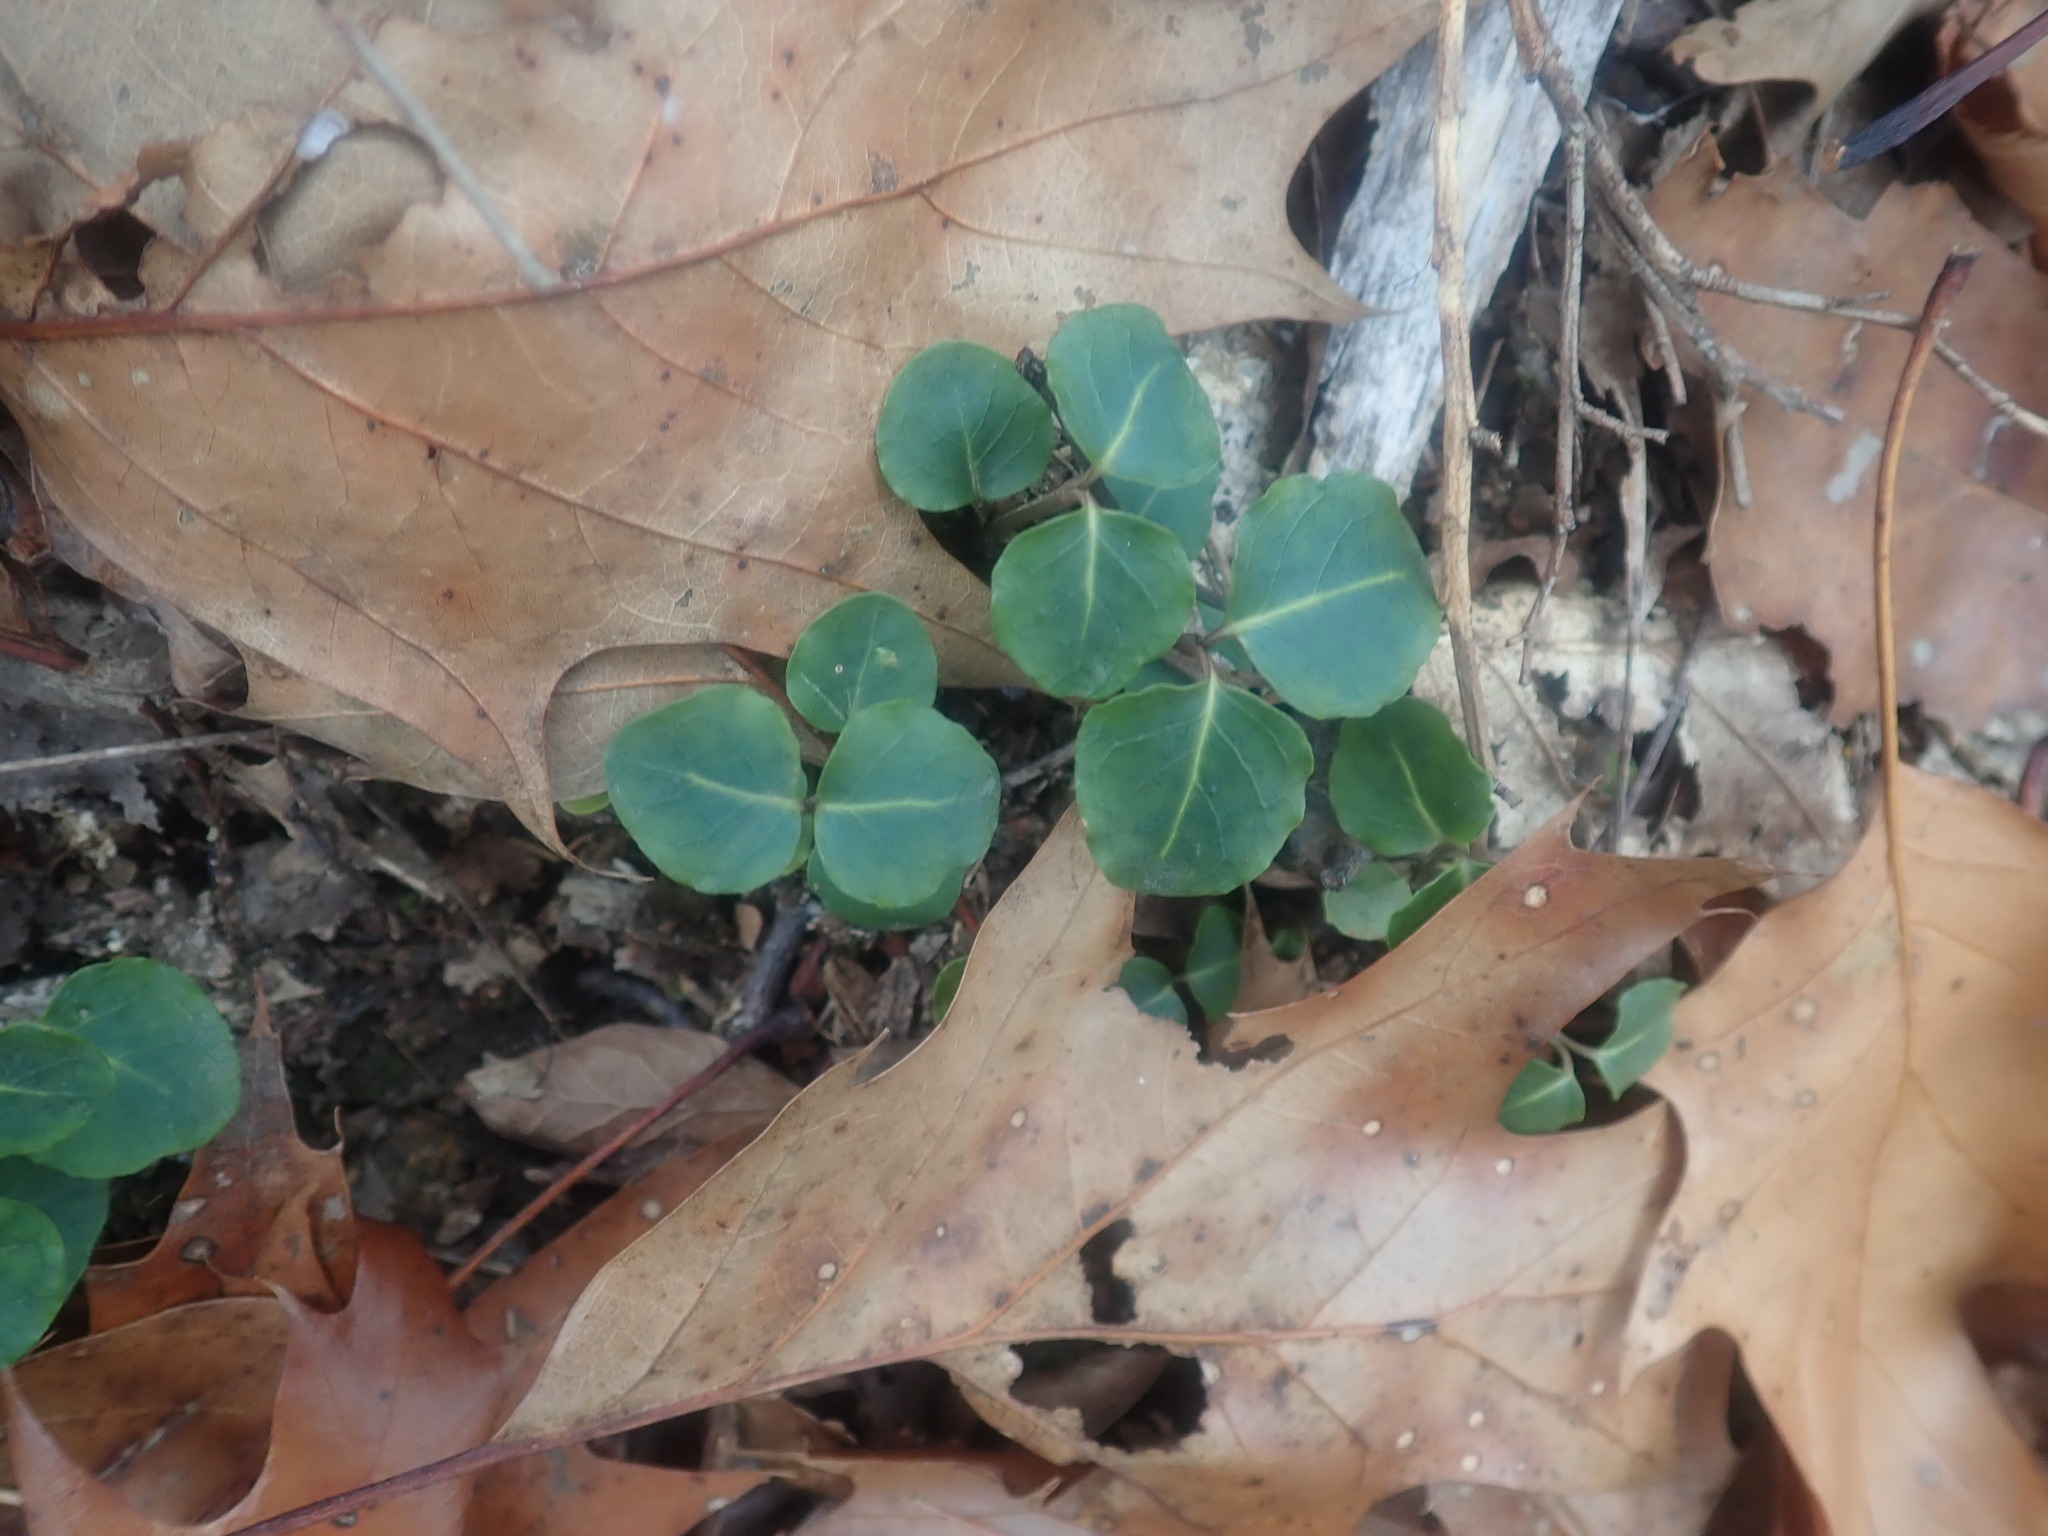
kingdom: Plantae
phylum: Tracheophyta
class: Magnoliopsida
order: Gentianales
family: Rubiaceae
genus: Mitchella
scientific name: Mitchella repens
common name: Partridge-berry
